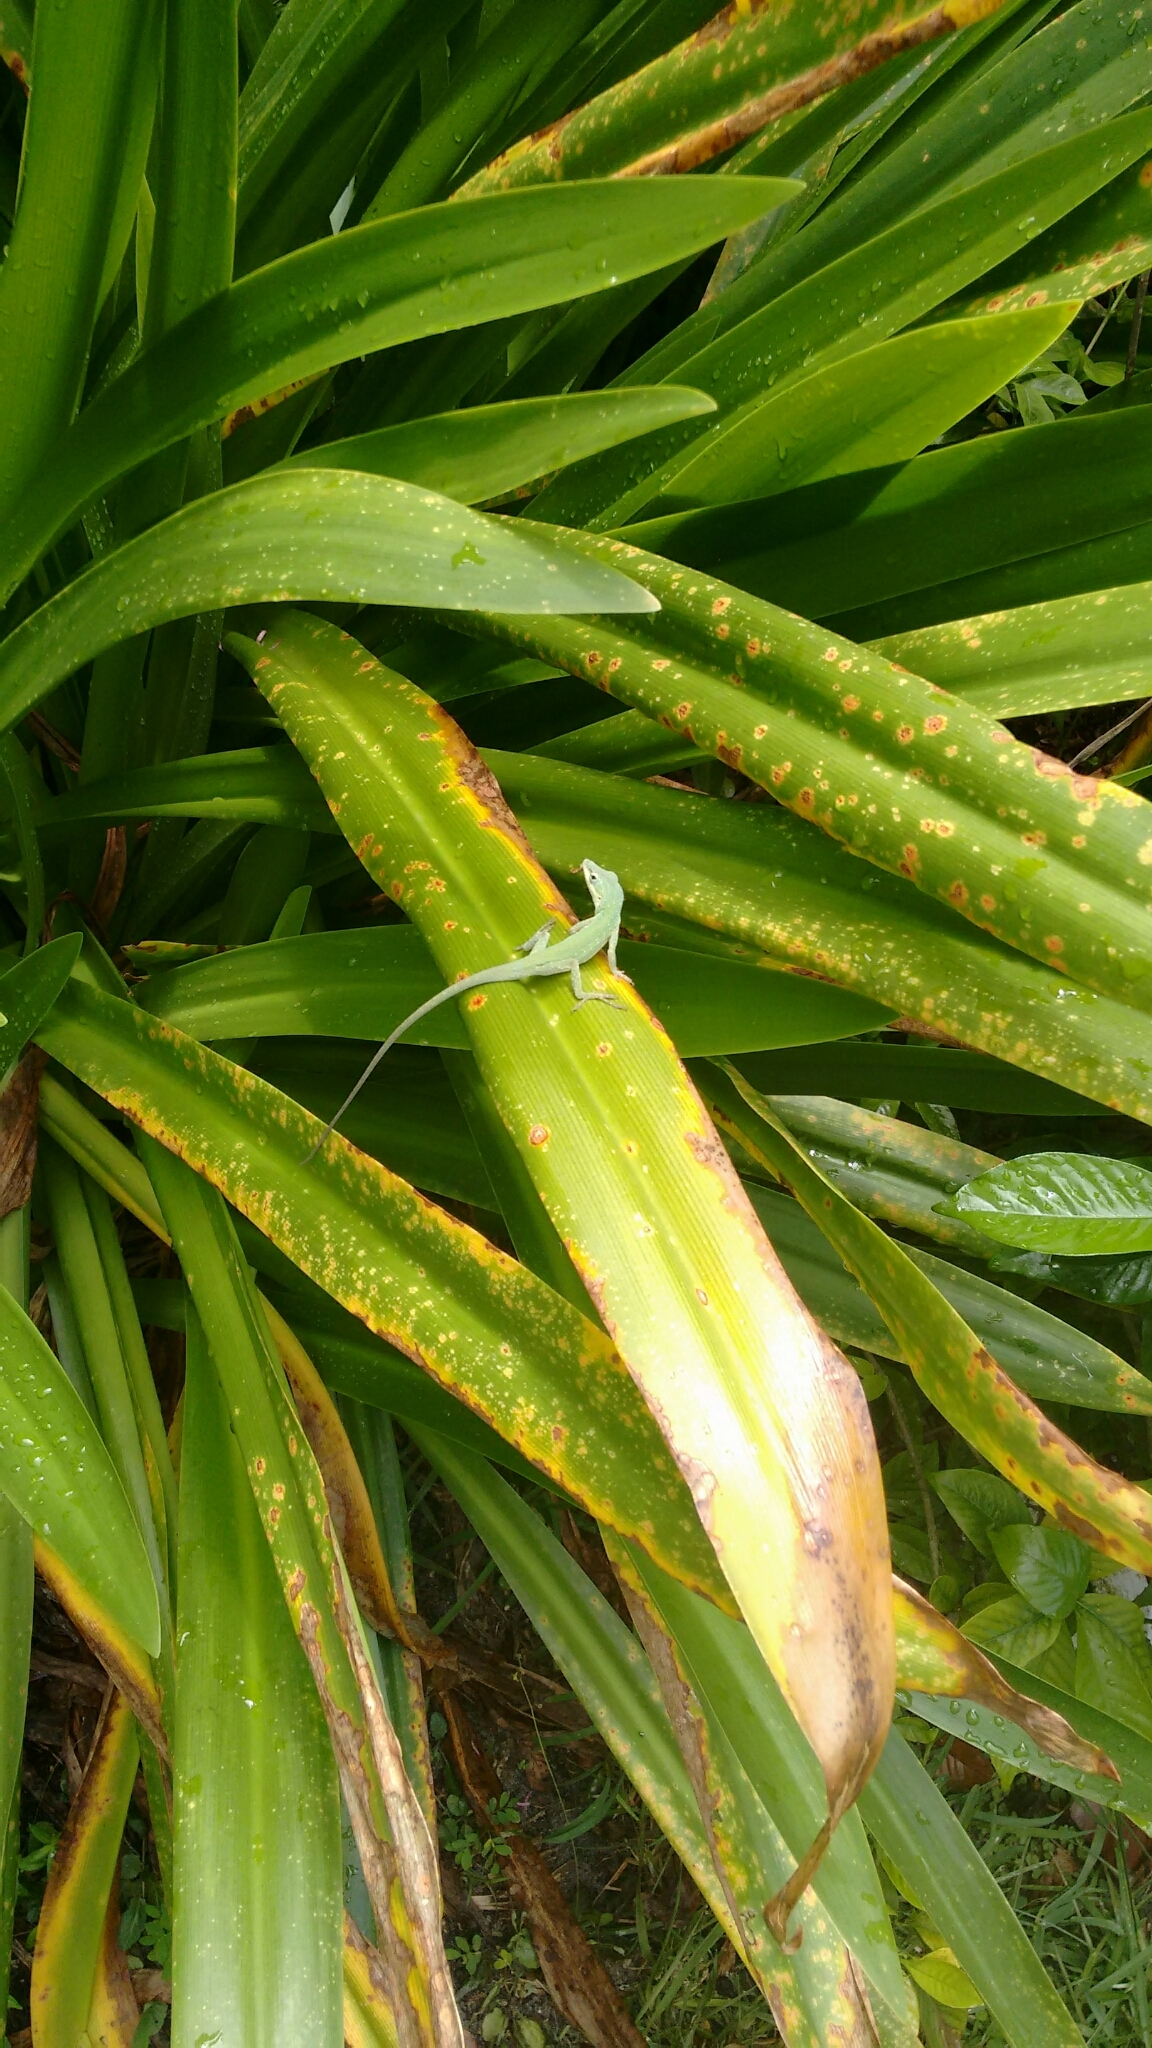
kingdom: Animalia
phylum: Chordata
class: Squamata
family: Dactyloidae
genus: Anolis
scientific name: Anolis carolinensis
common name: Green anole
